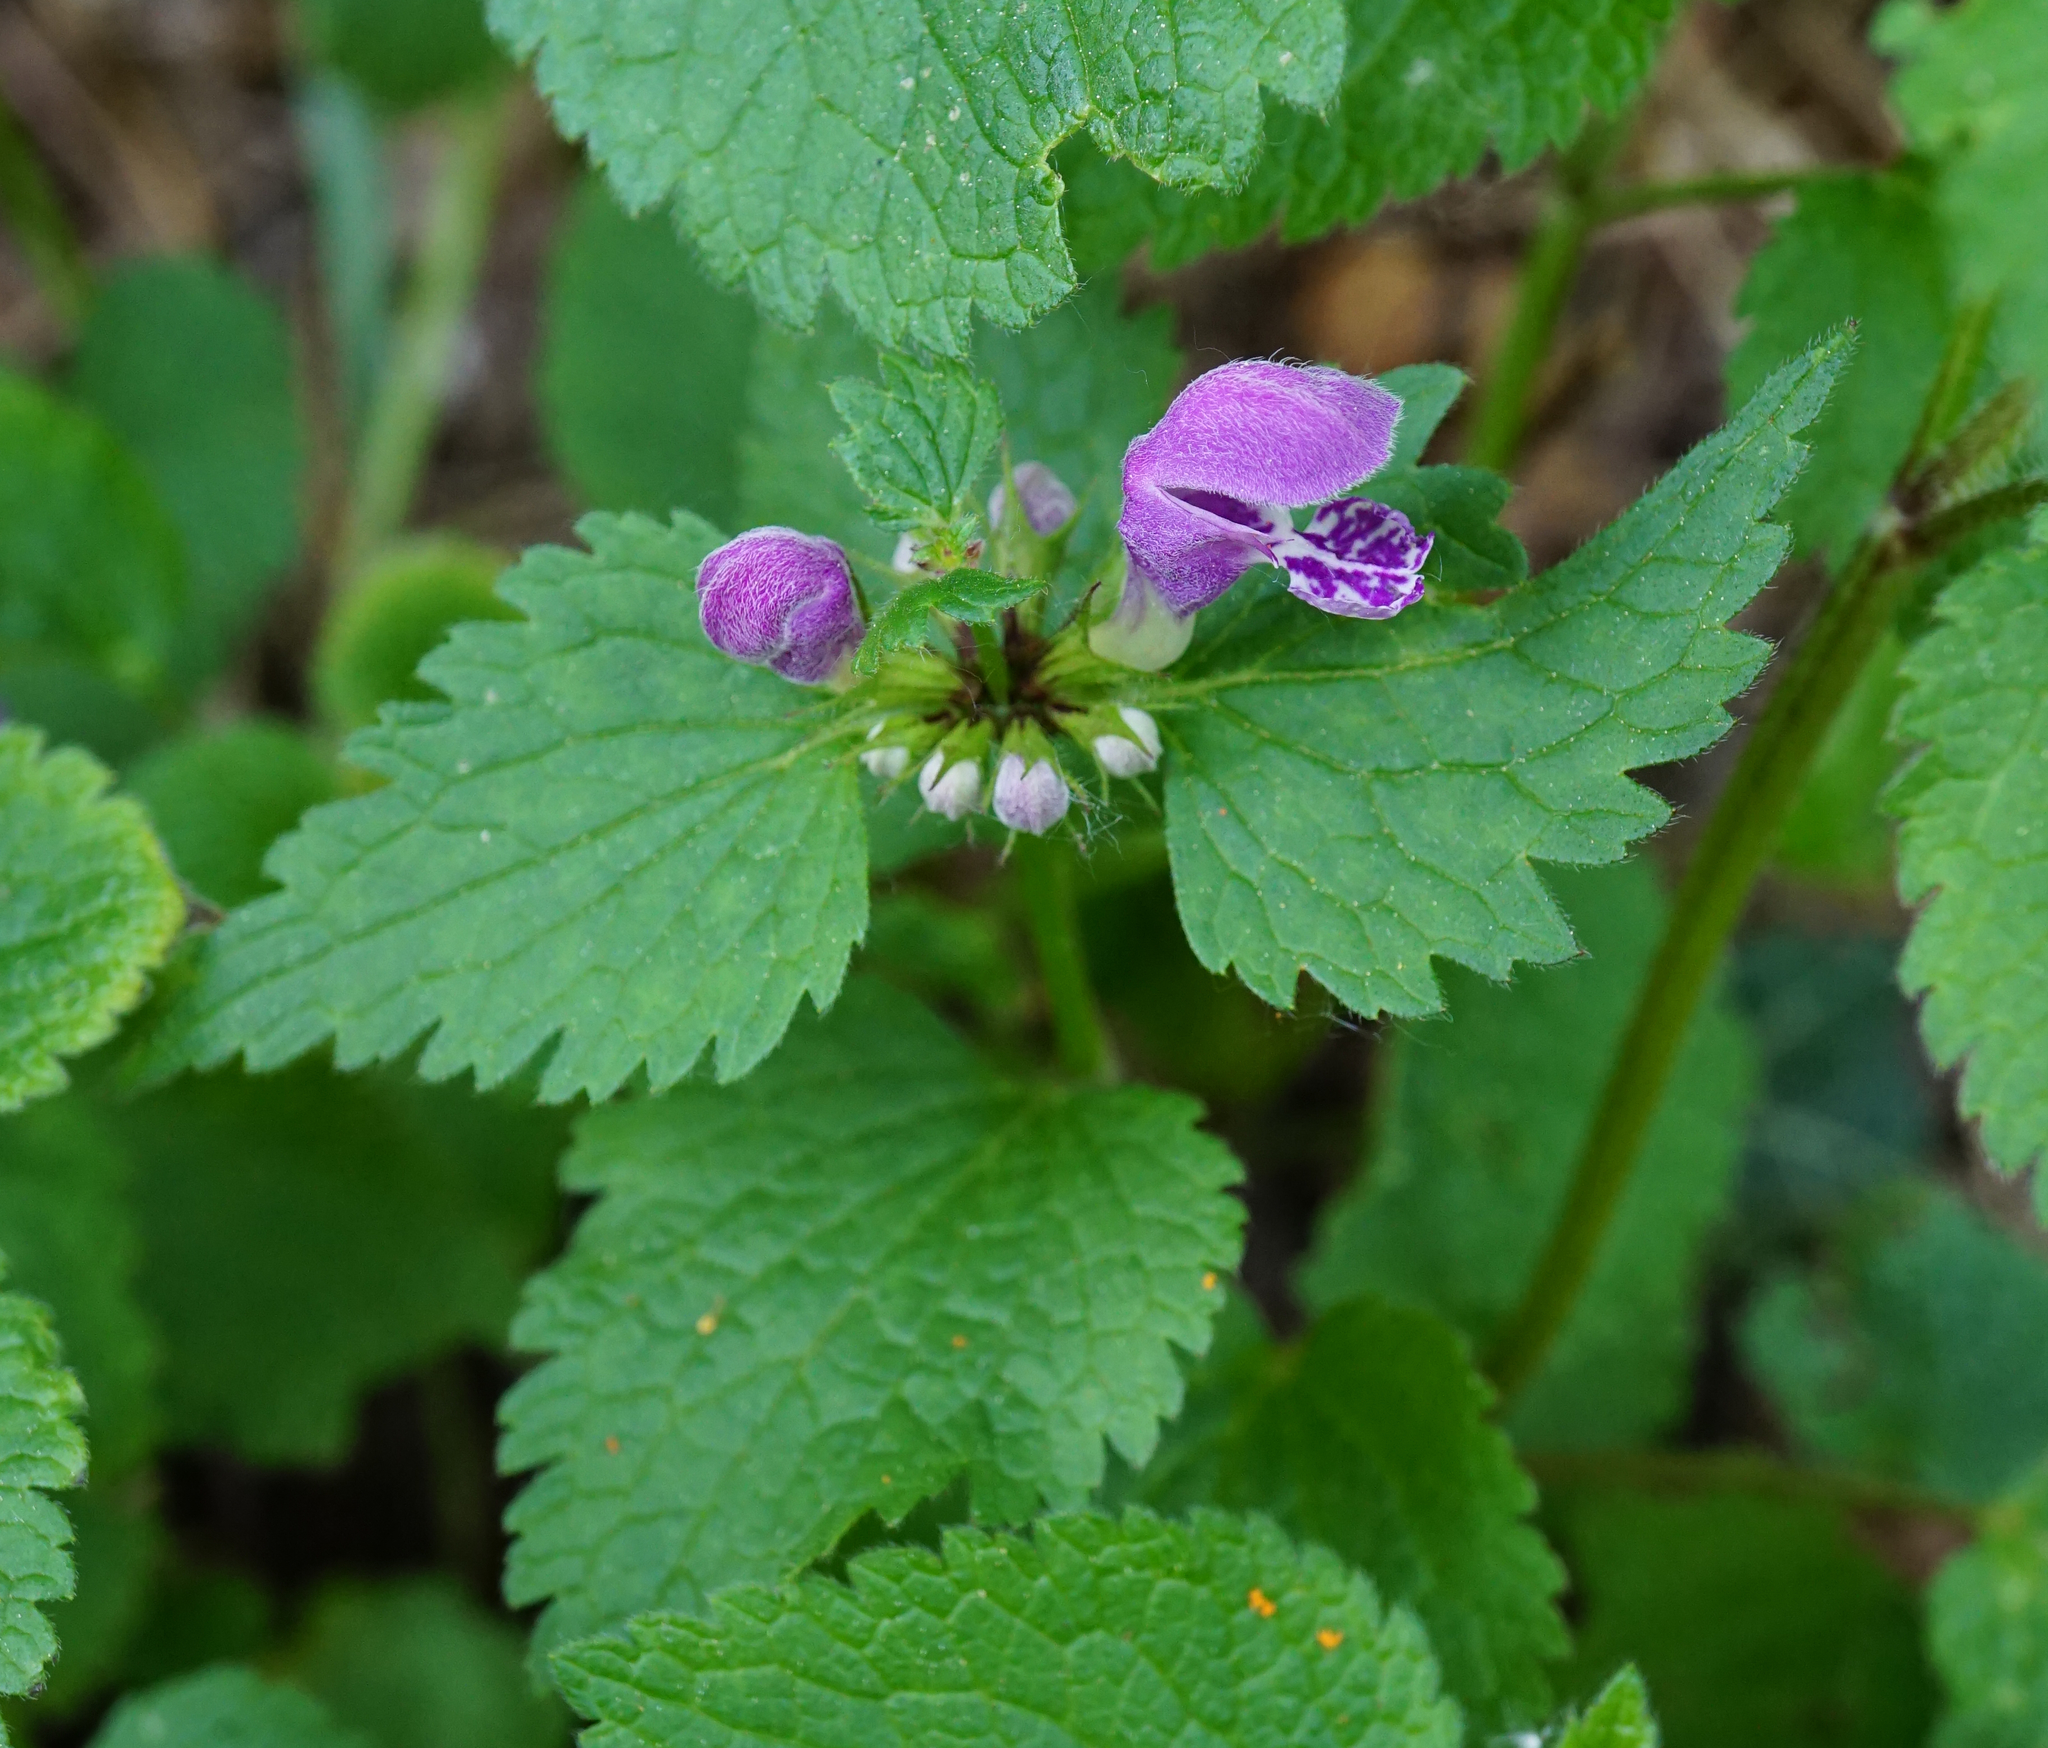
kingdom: Plantae
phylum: Tracheophyta
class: Magnoliopsida
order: Lamiales
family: Lamiaceae
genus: Lamium
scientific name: Lamium maculatum
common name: Spotted dead-nettle
